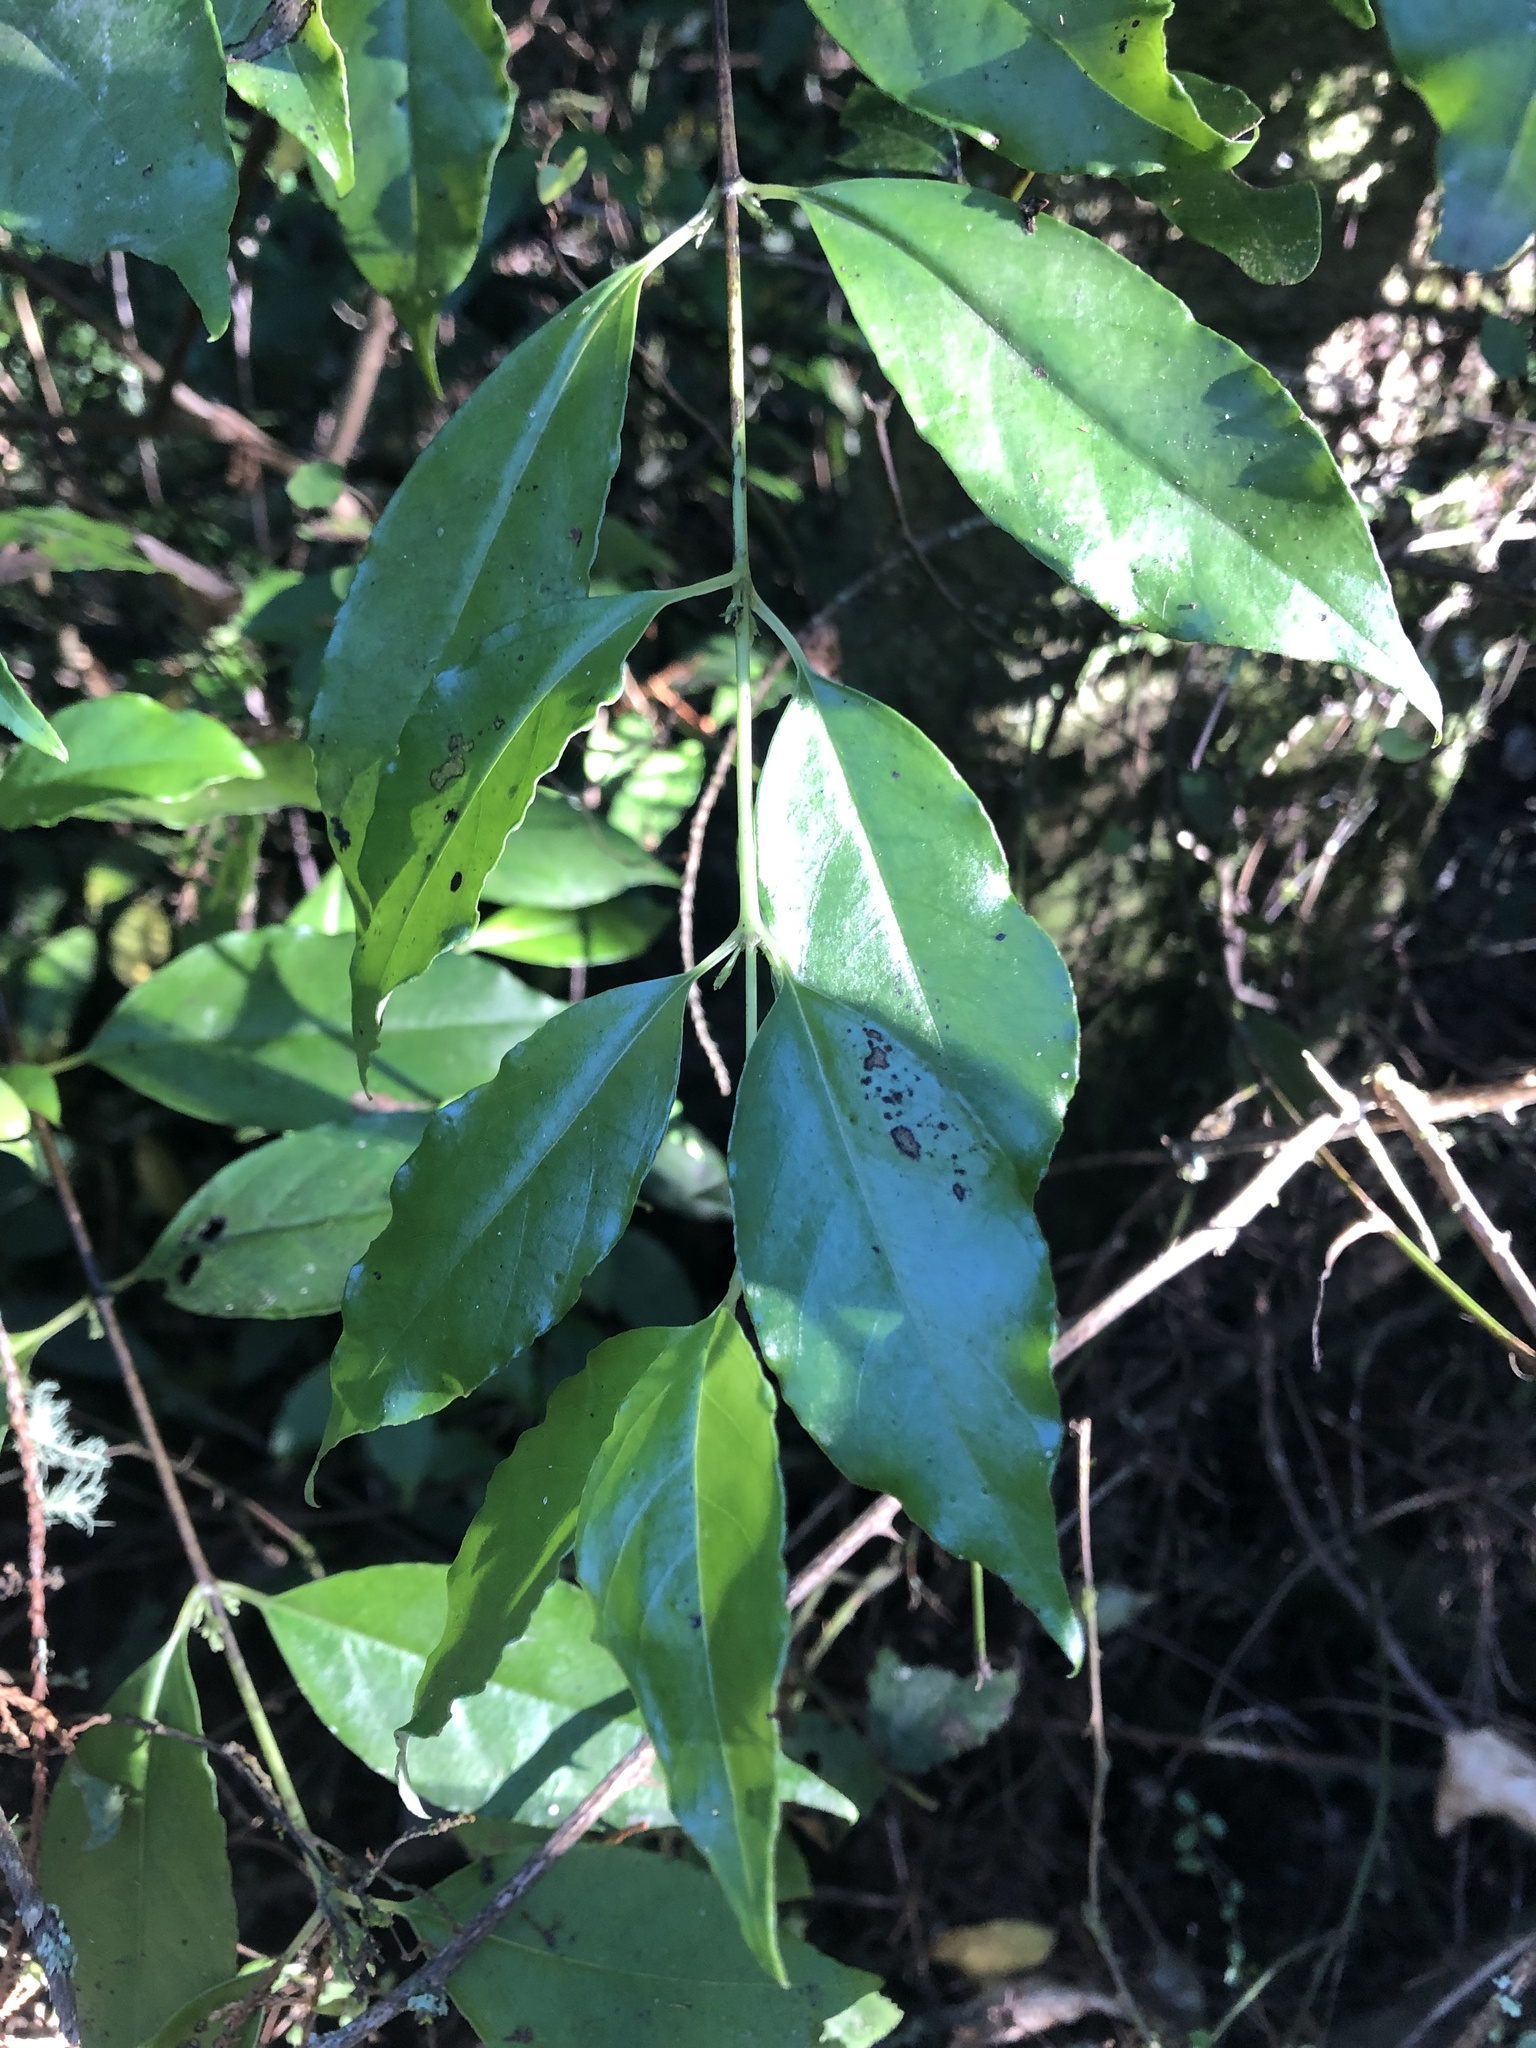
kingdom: Plantae
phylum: Tracheophyta
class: Magnoliopsida
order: Gentianales
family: Loganiaceae
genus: Geniostoma
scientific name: Geniostoma ligustrifolium
